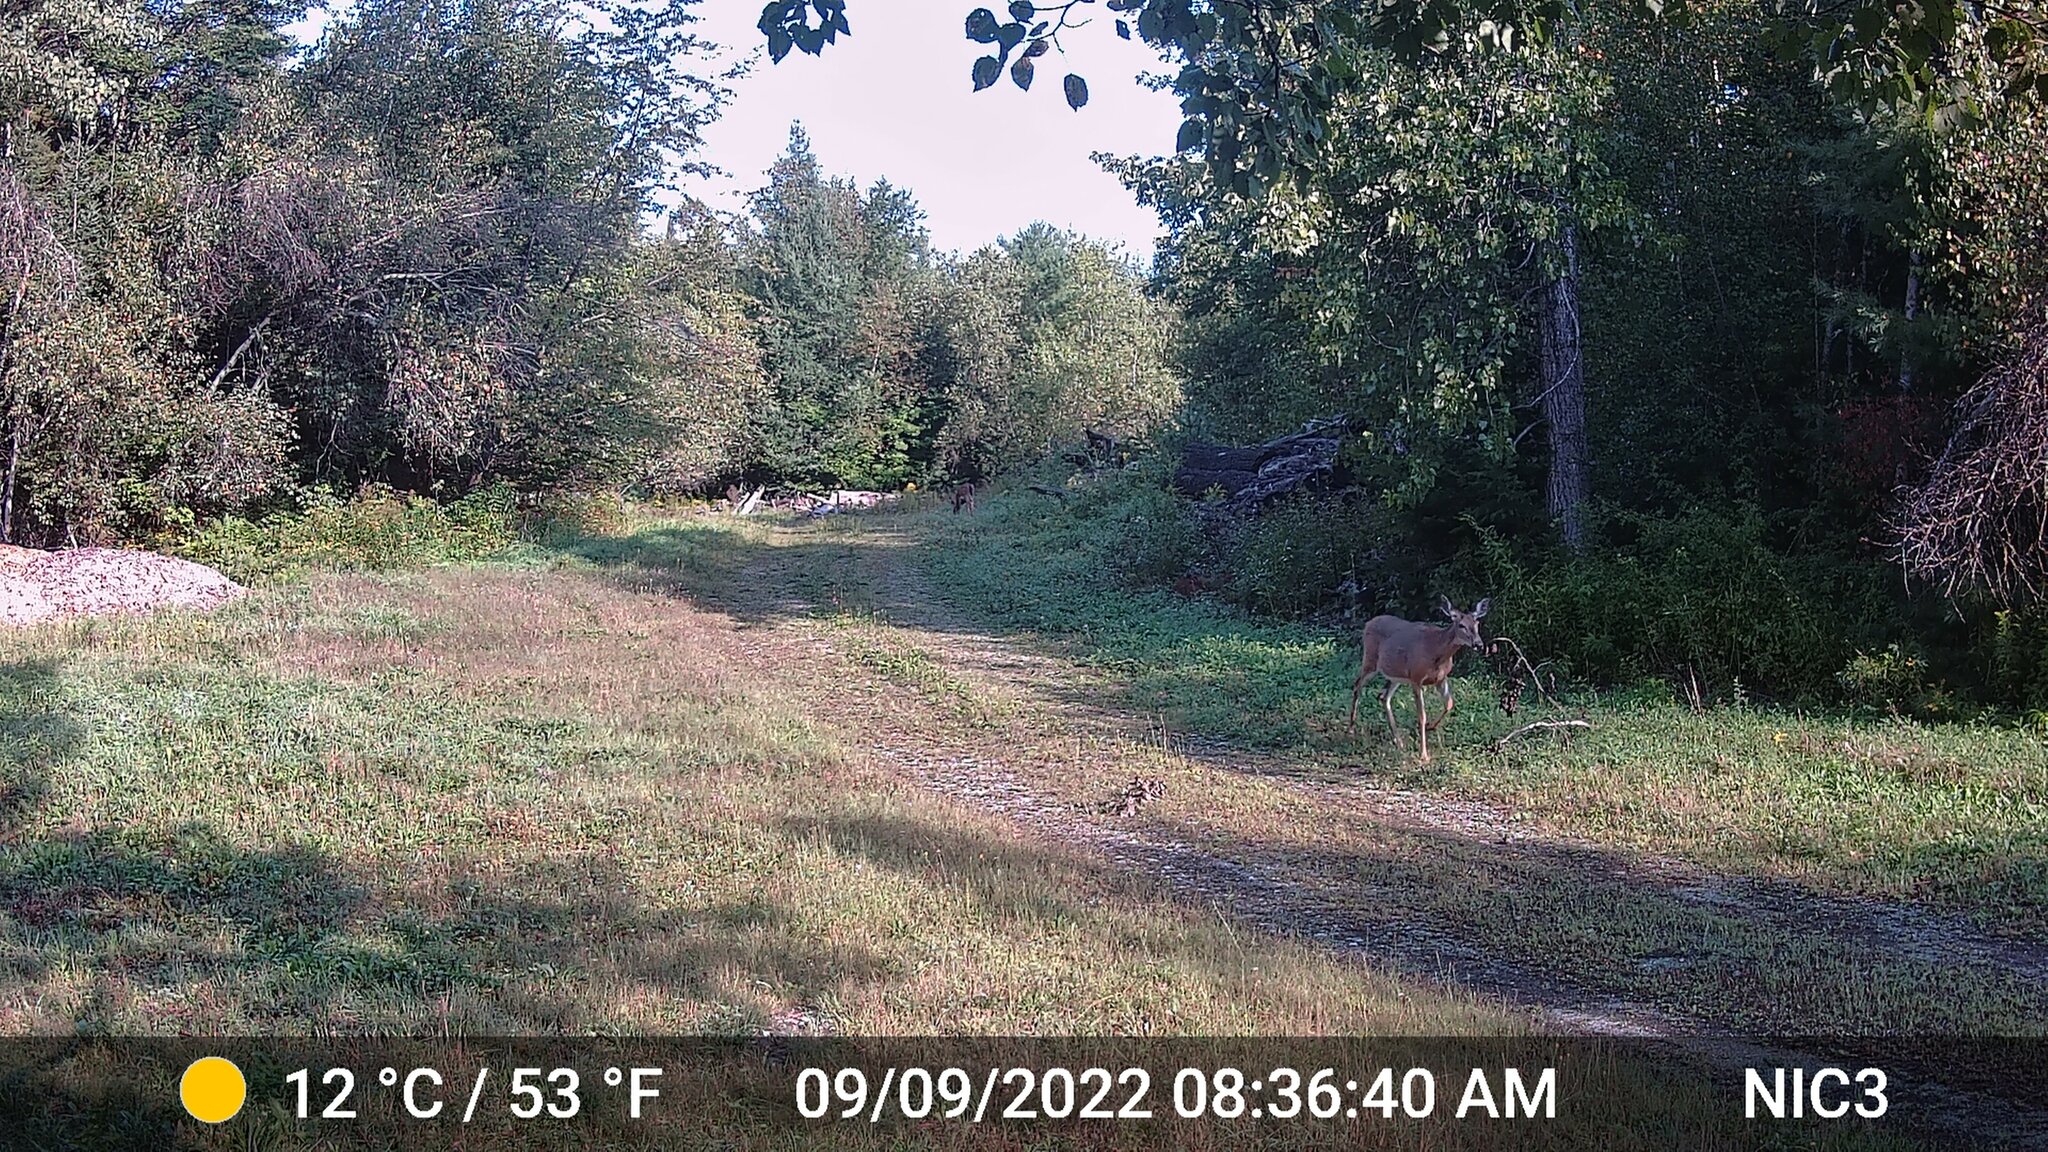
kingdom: Animalia
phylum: Chordata
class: Mammalia
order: Artiodactyla
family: Cervidae
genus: Odocoileus
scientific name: Odocoileus virginianus
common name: White-tailed deer
